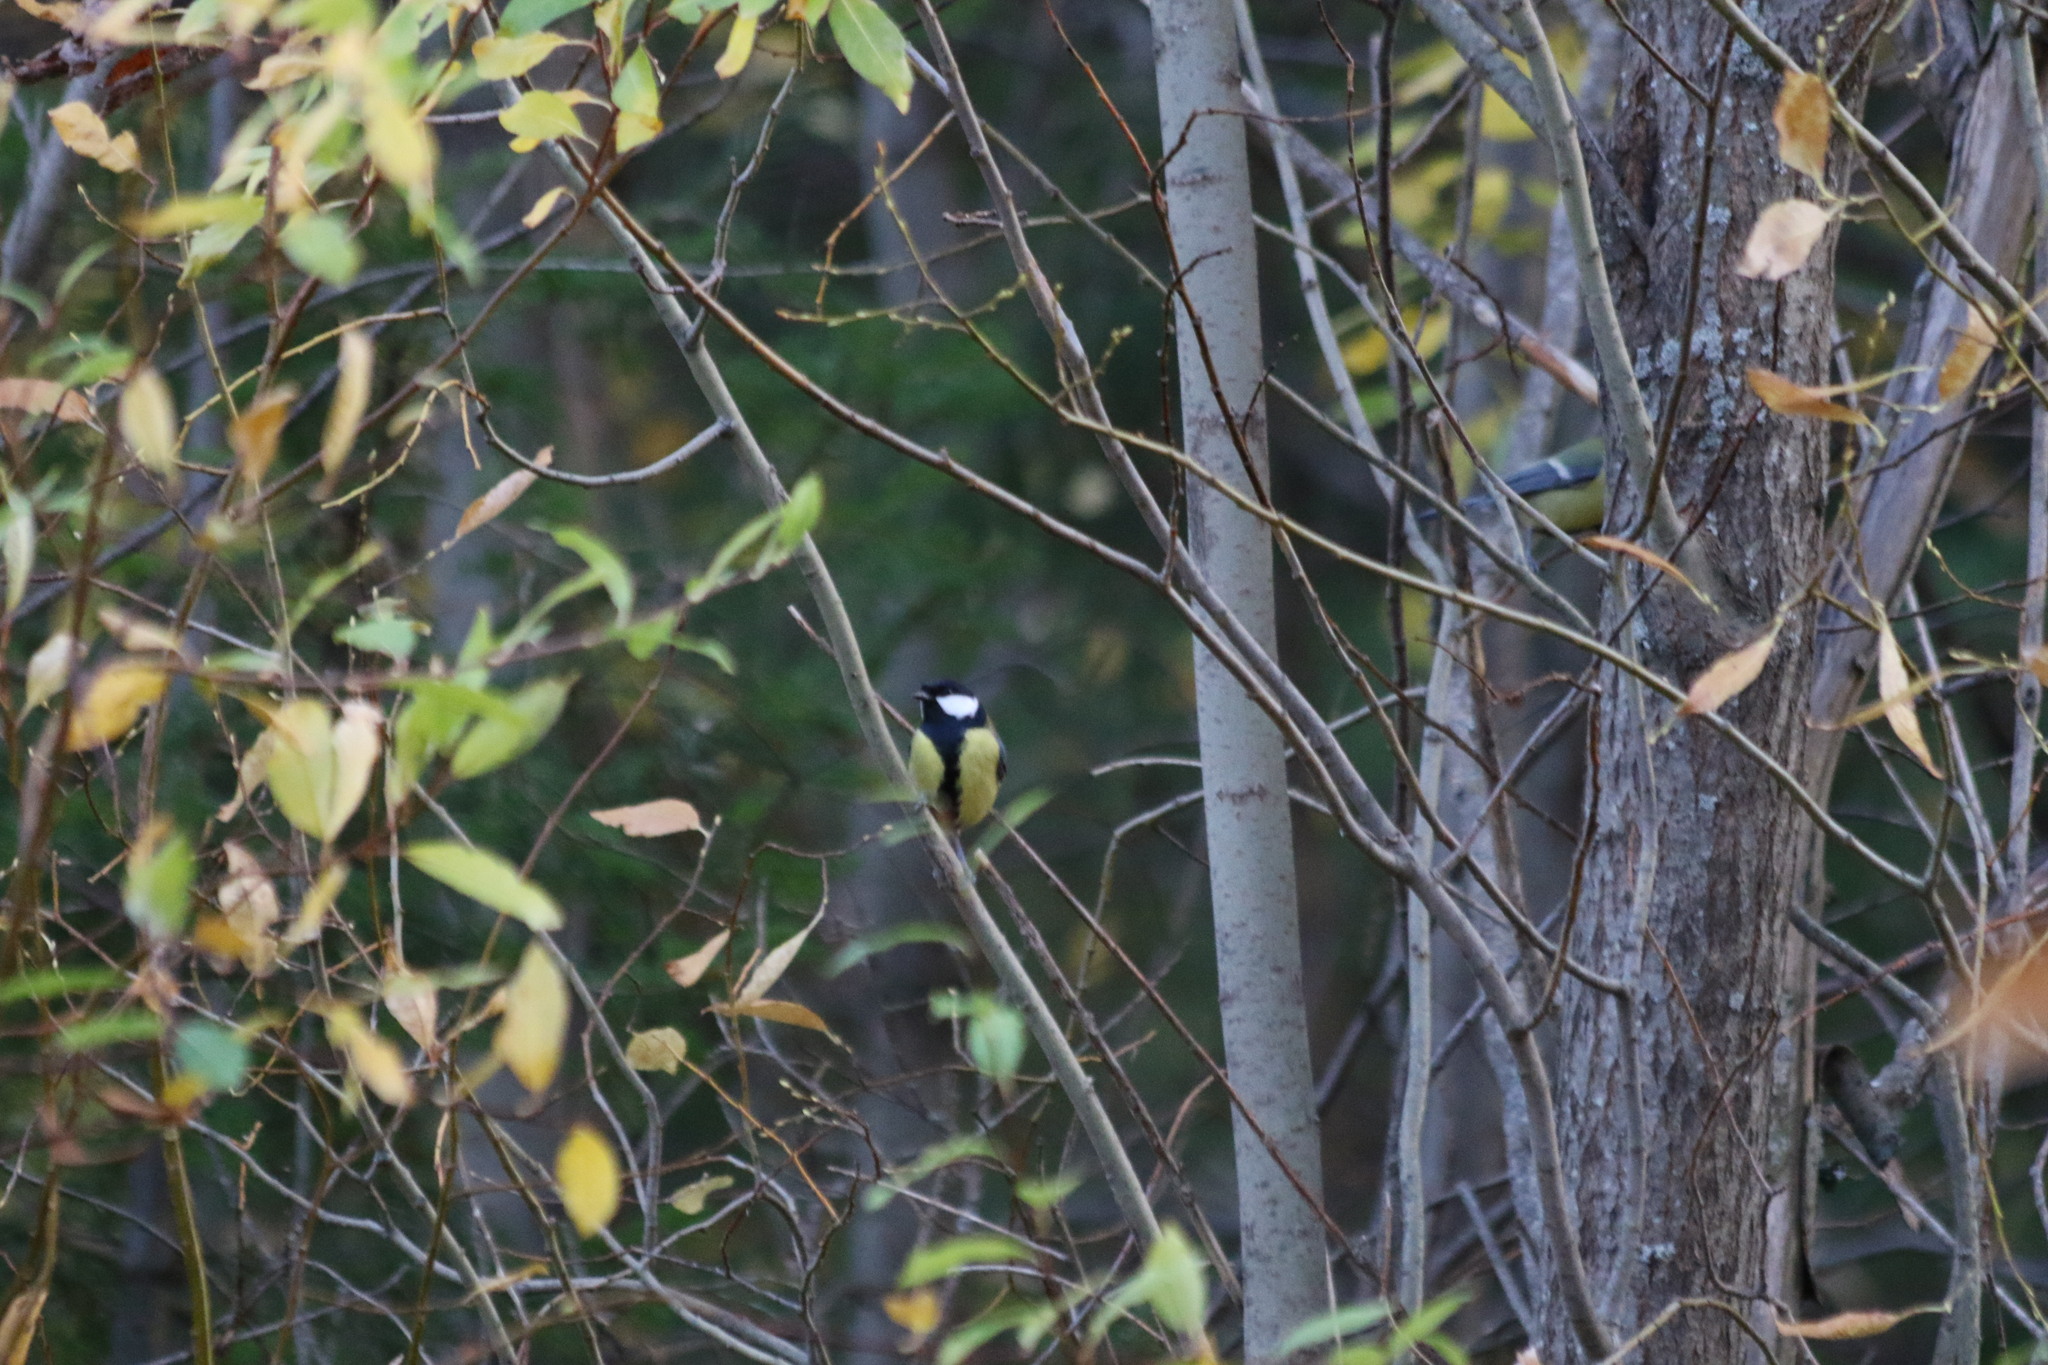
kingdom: Animalia
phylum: Chordata
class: Aves
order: Passeriformes
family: Paridae
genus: Parus
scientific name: Parus major
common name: Great tit
